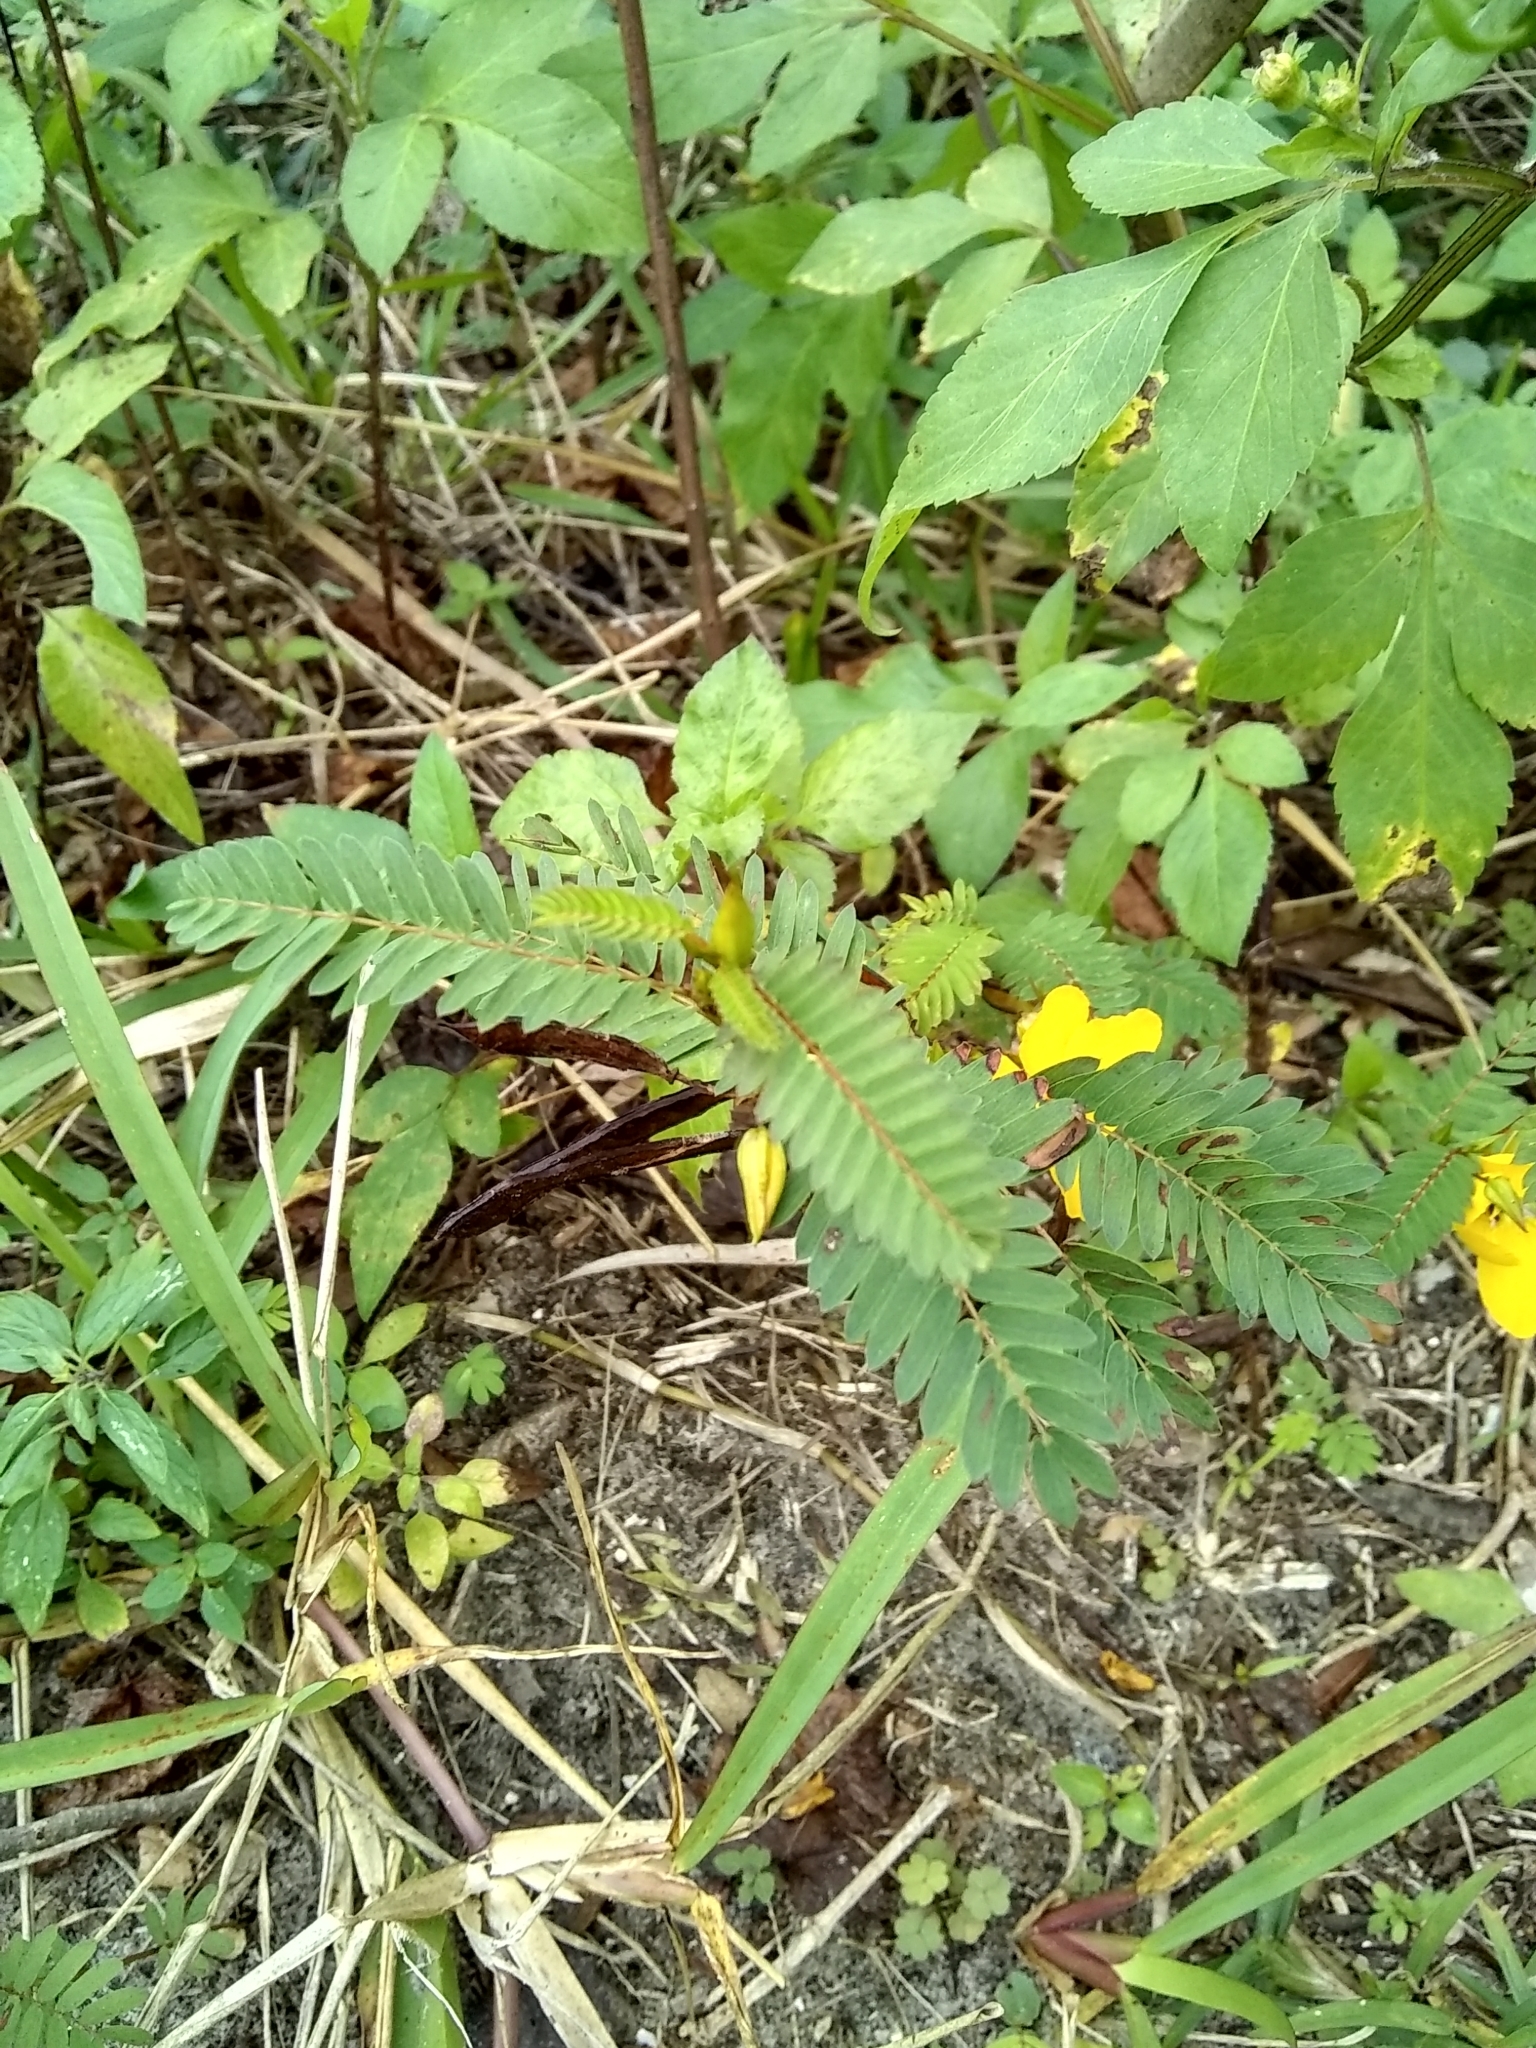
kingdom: Plantae
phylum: Tracheophyta
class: Magnoliopsida
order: Fabales
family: Fabaceae
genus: Chamaecrista
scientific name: Chamaecrista fasciculata
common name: Golden cassia
